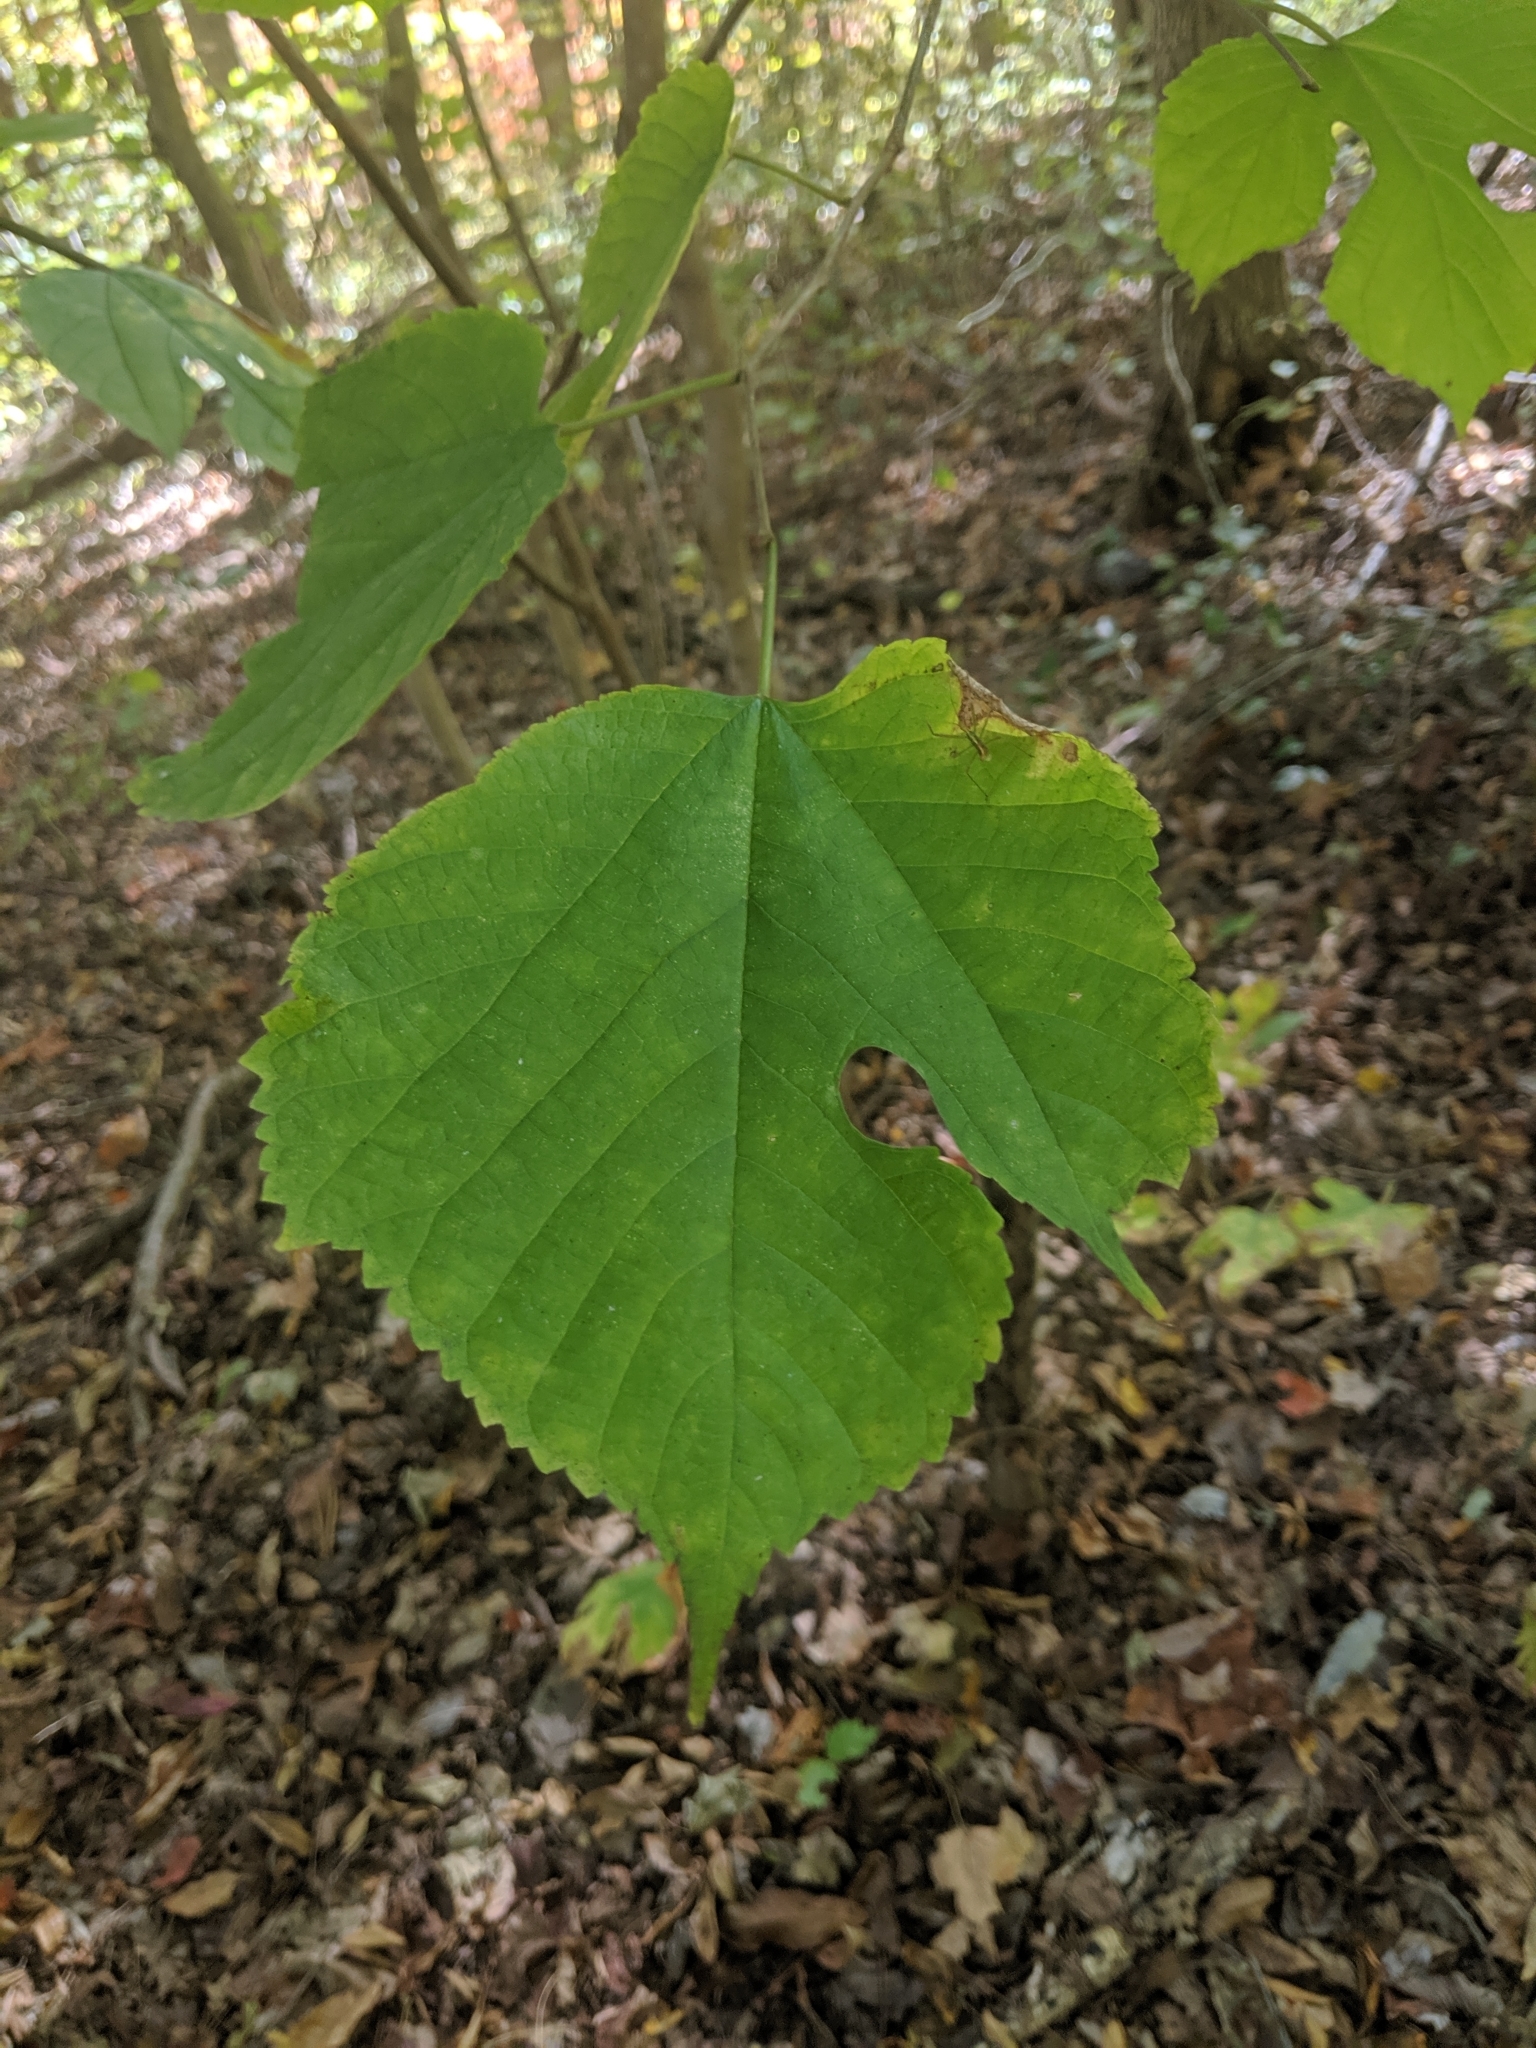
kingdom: Plantae
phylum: Tracheophyta
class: Magnoliopsida
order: Rosales
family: Moraceae
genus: Morus
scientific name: Morus rubra
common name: Red mulberry
